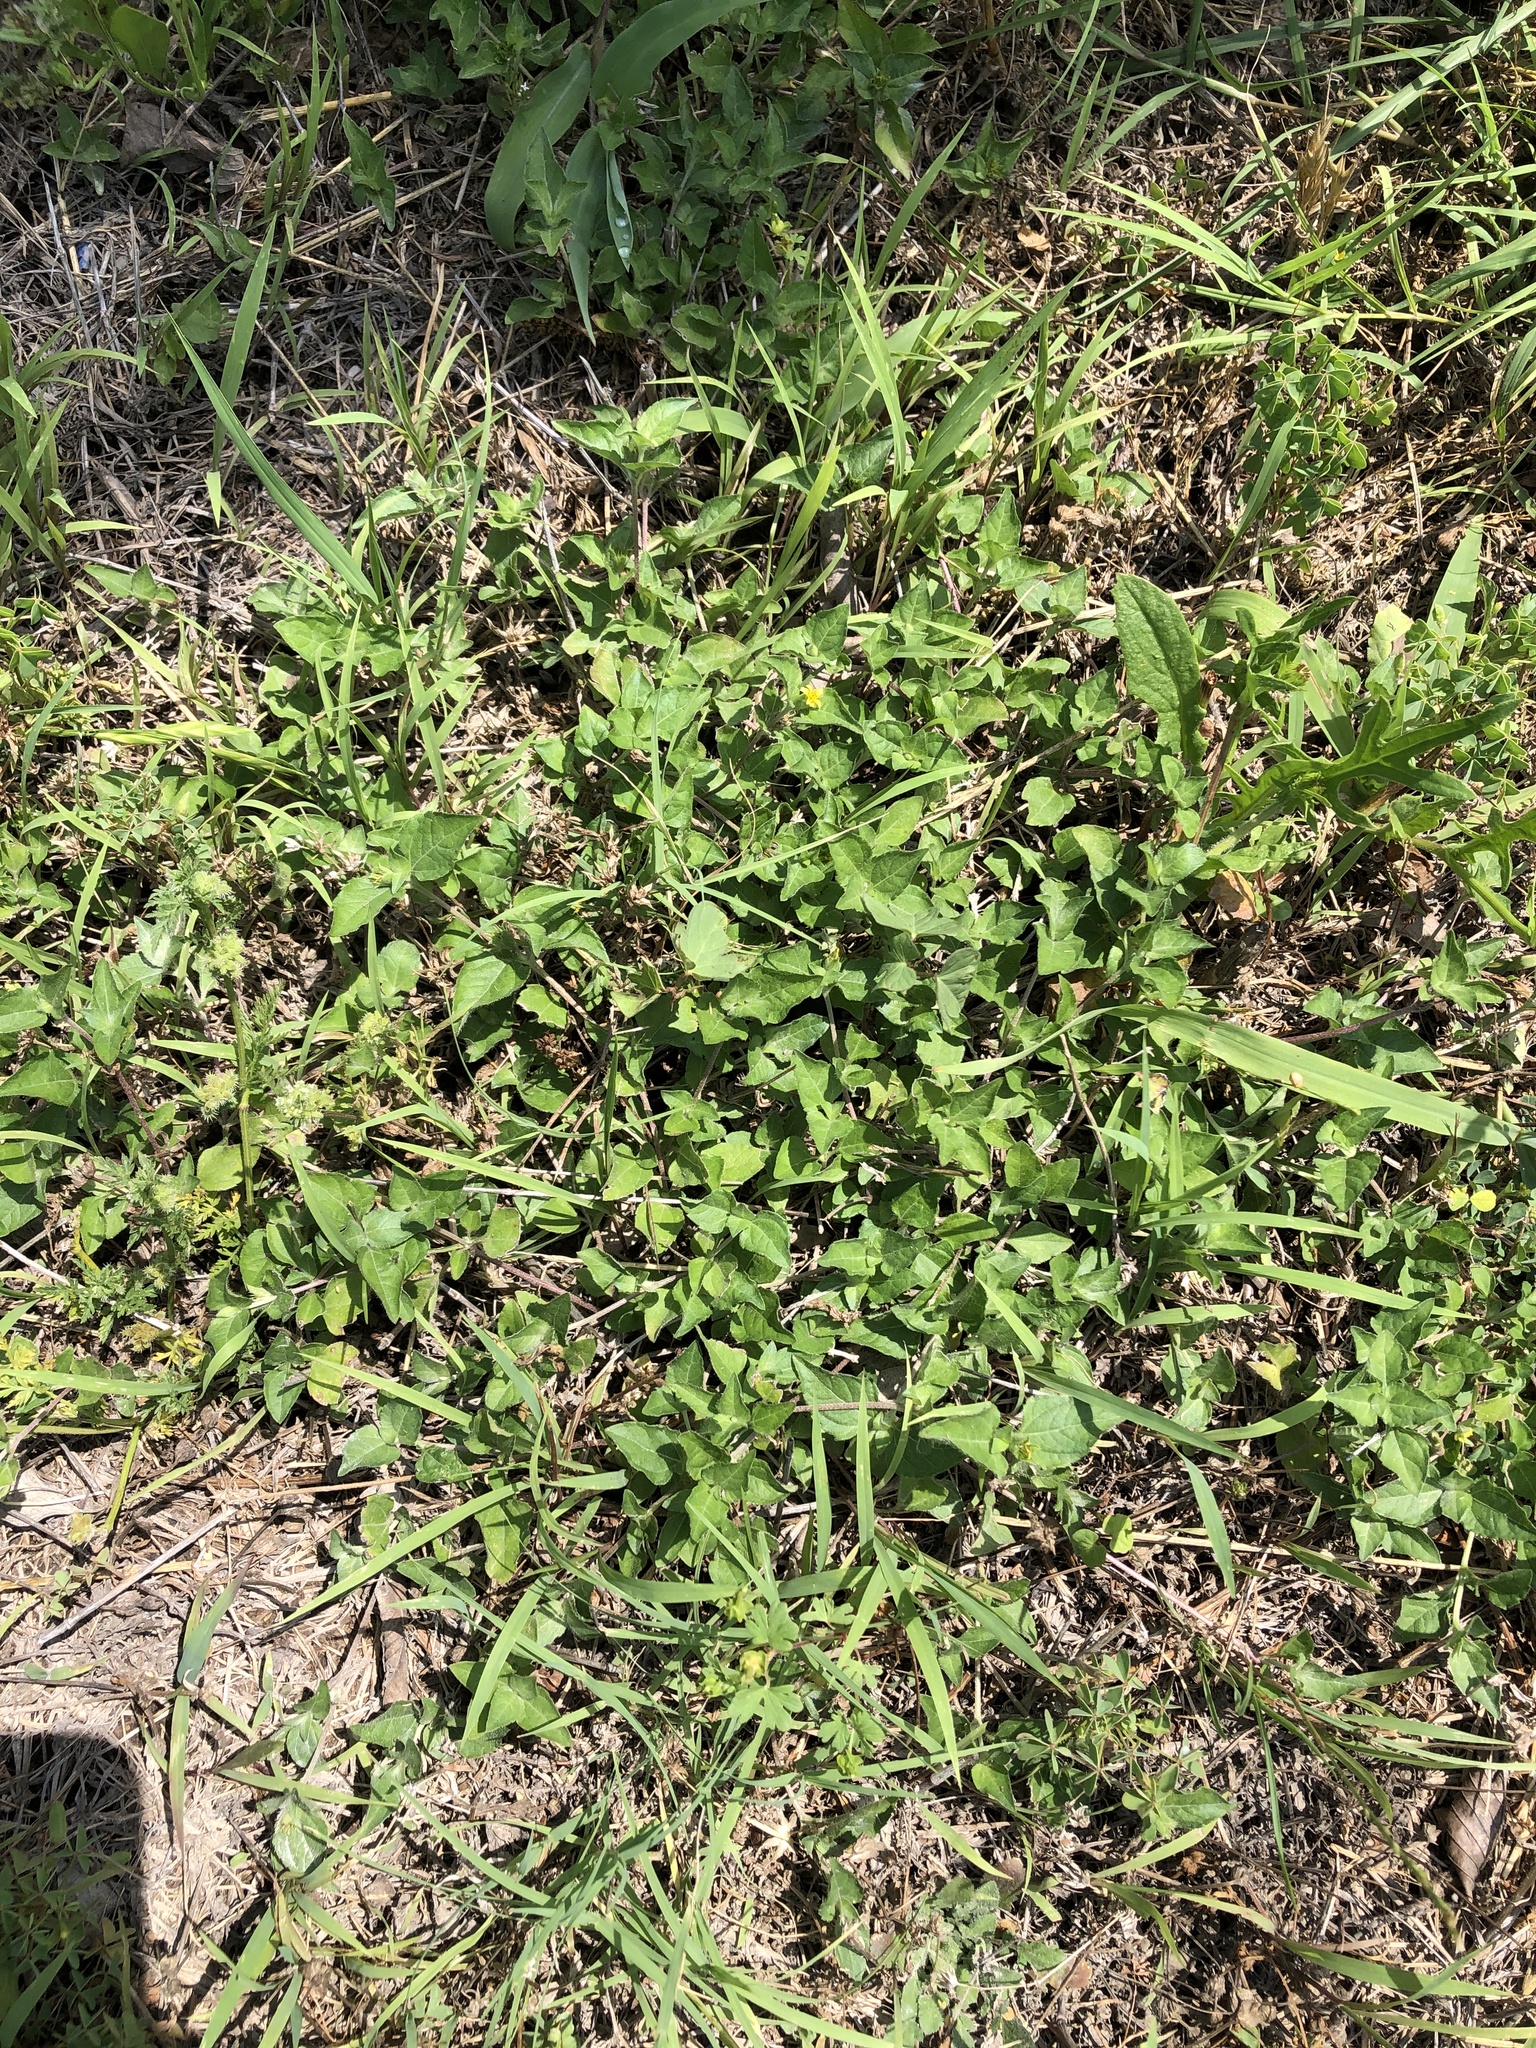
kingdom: Plantae
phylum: Tracheophyta
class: Magnoliopsida
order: Asterales
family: Asteraceae
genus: Calyptocarpus
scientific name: Calyptocarpus vialis
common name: Straggler daisy
